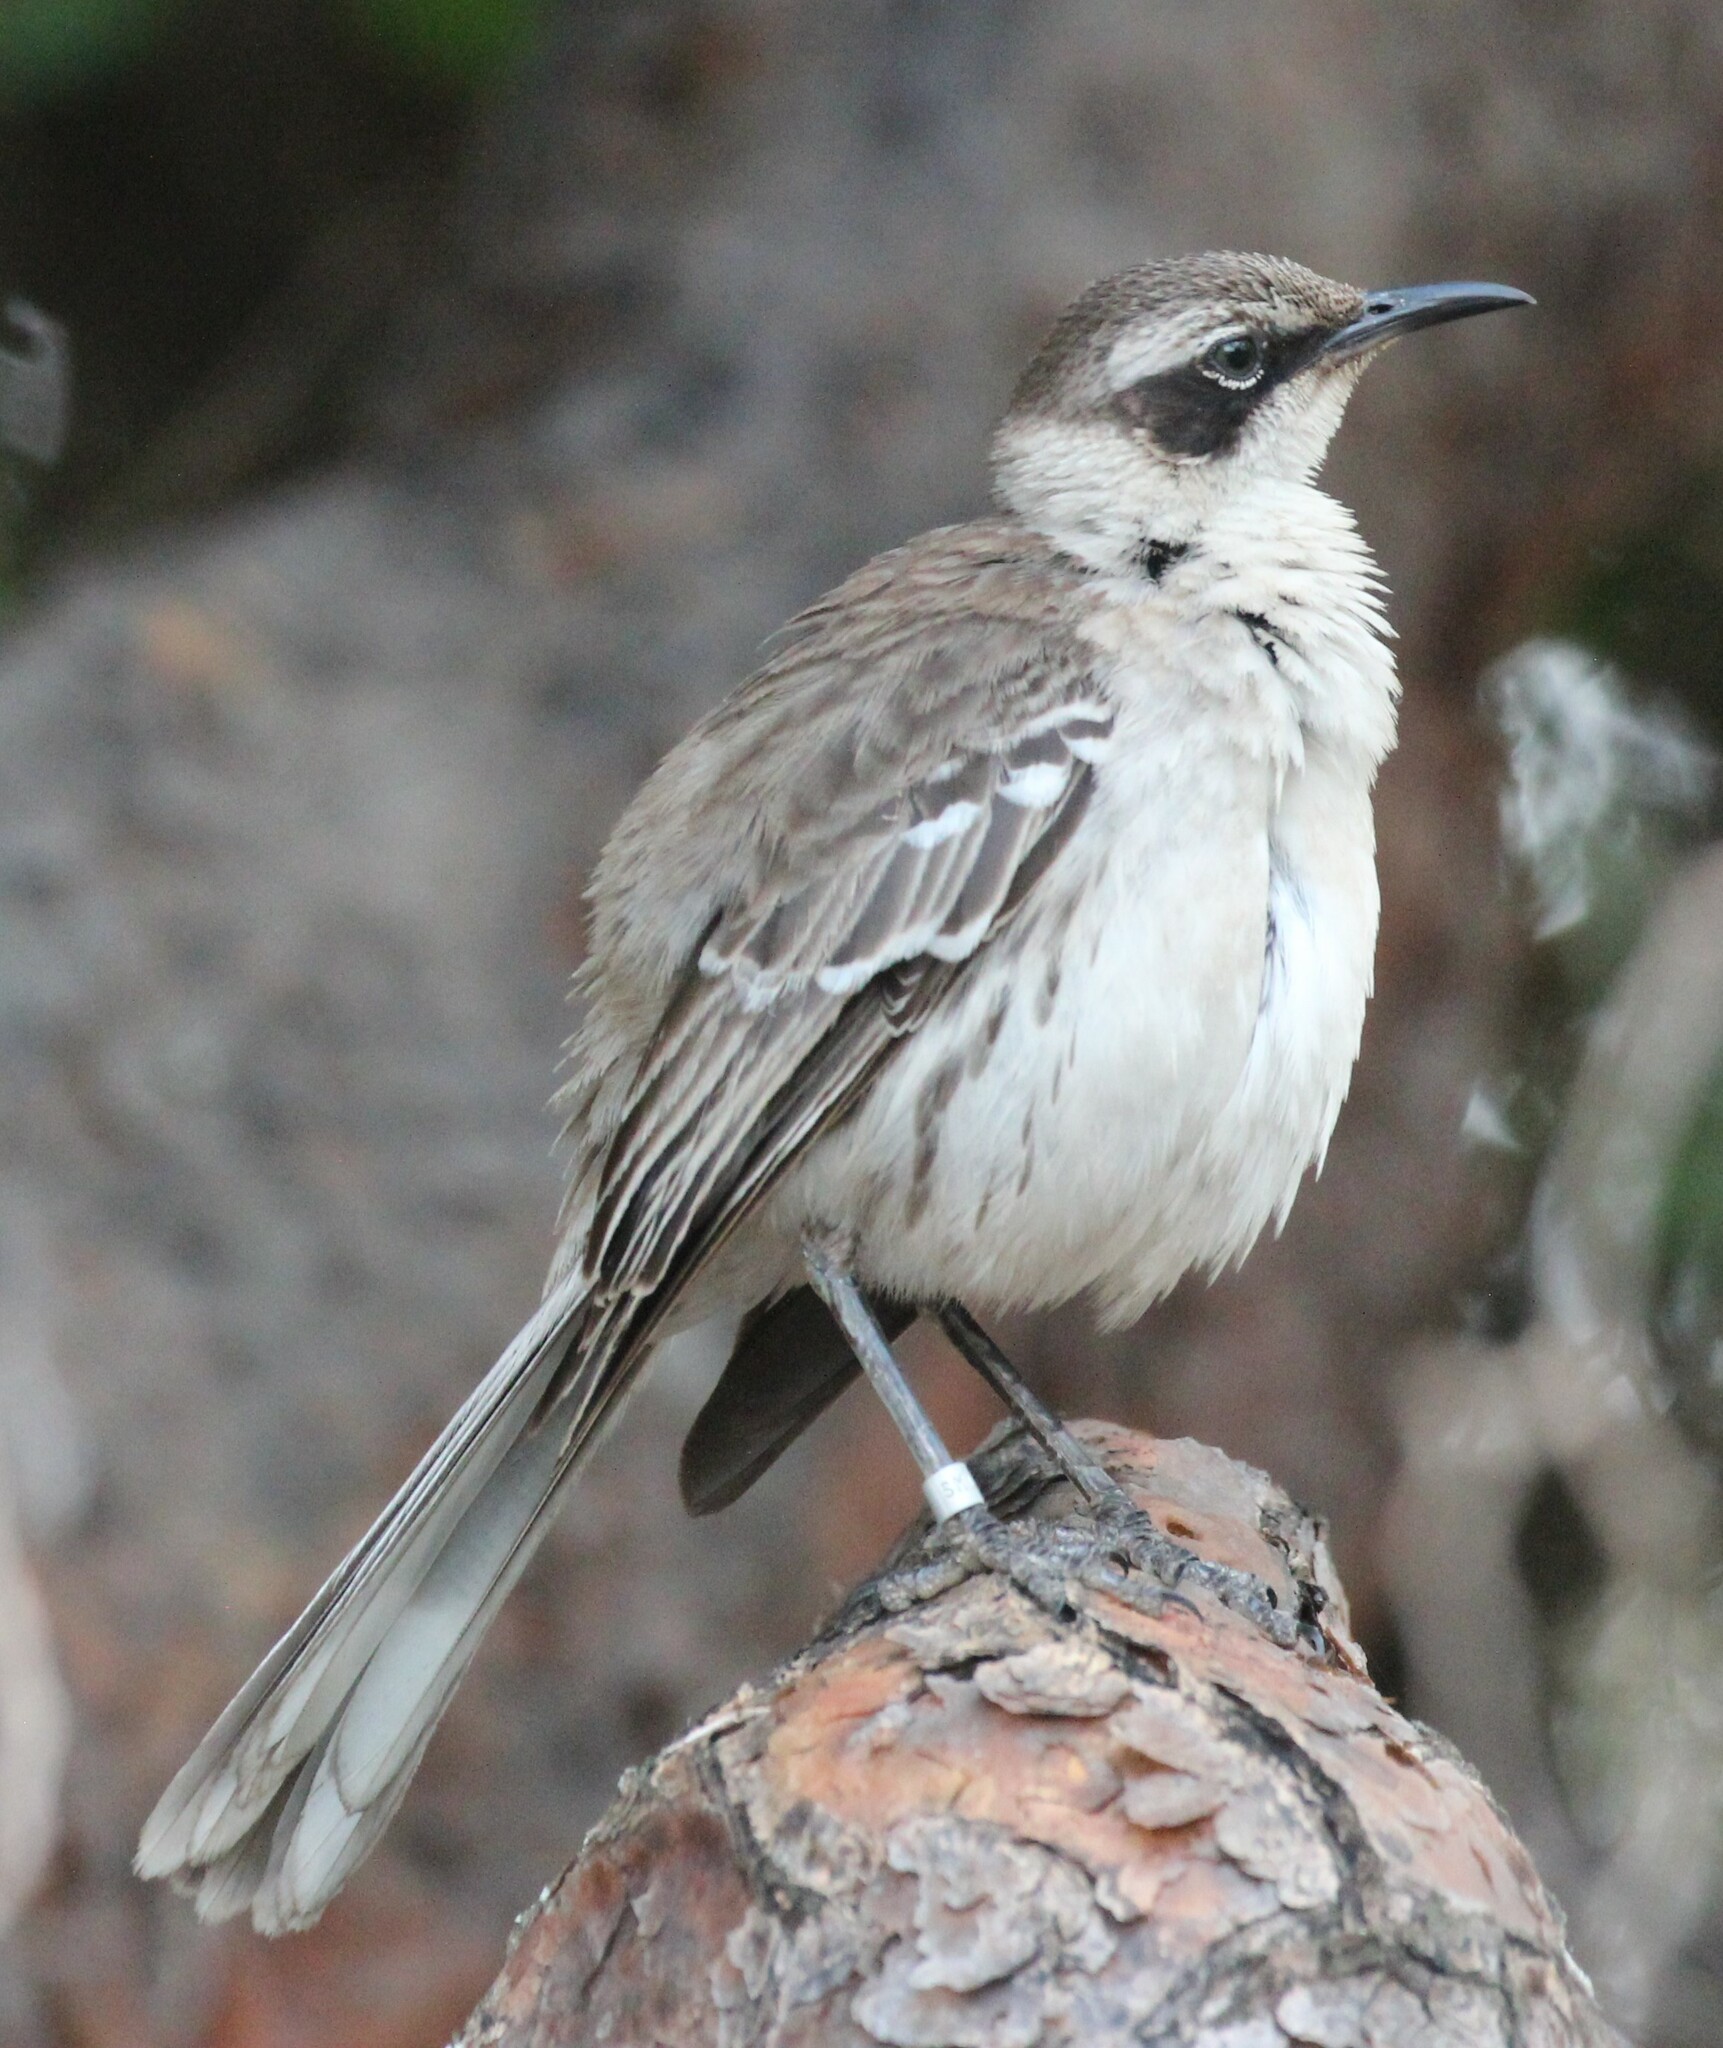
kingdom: Animalia
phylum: Chordata
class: Aves
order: Passeriformes
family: Mimidae
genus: Mimus
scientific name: Mimus parvulus
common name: Galapagos mockingbird
